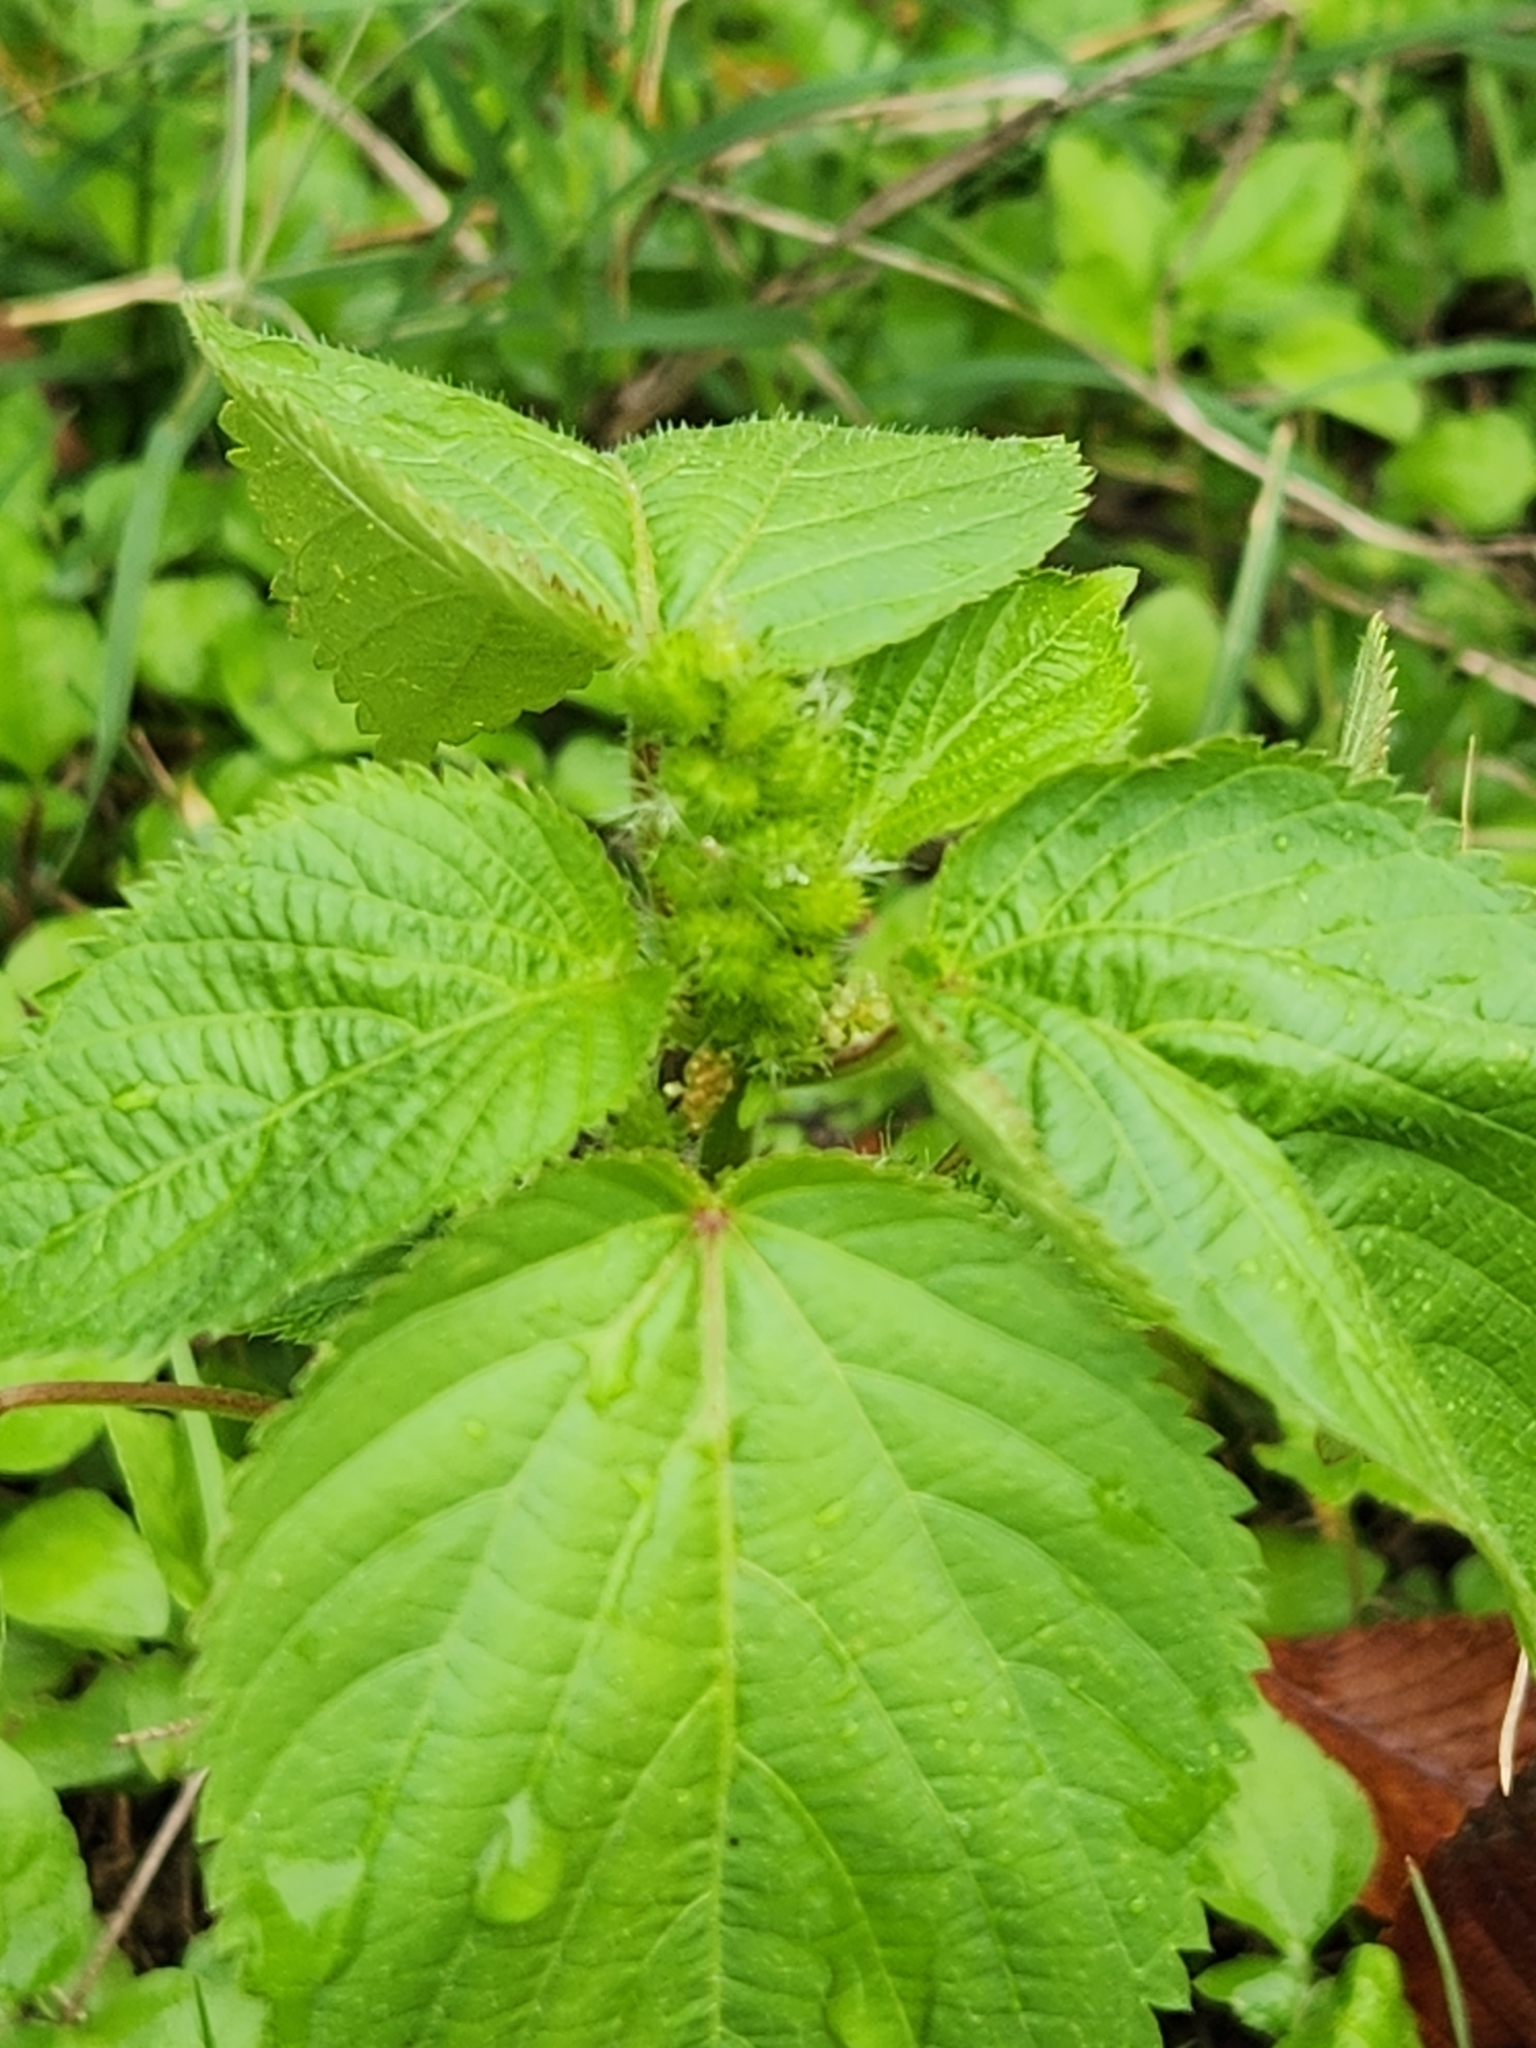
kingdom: Plantae
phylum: Tracheophyta
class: Magnoliopsida
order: Malpighiales
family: Euphorbiaceae
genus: Acalypha
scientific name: Acalypha ostryifolia
